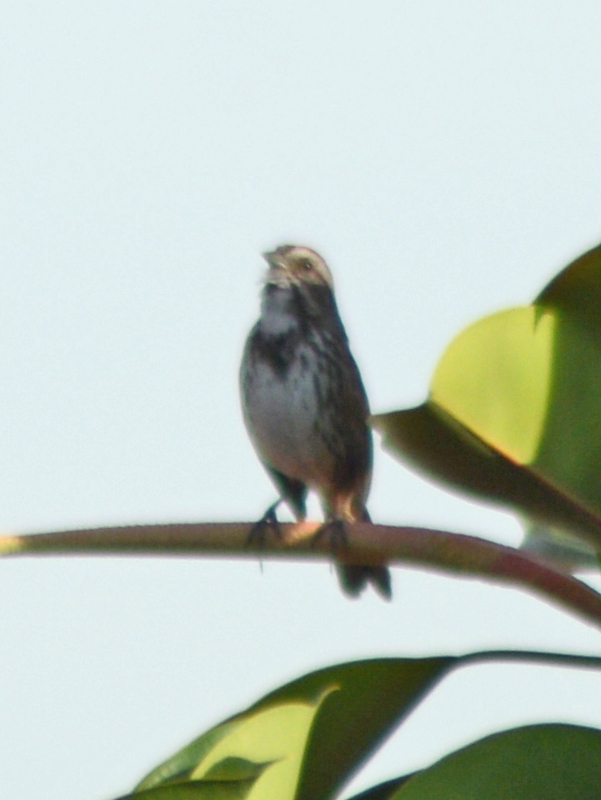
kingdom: Animalia
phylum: Chordata
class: Aves
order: Passeriformes
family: Passerellidae
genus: Melospiza
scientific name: Melospiza melodia
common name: Song sparrow
